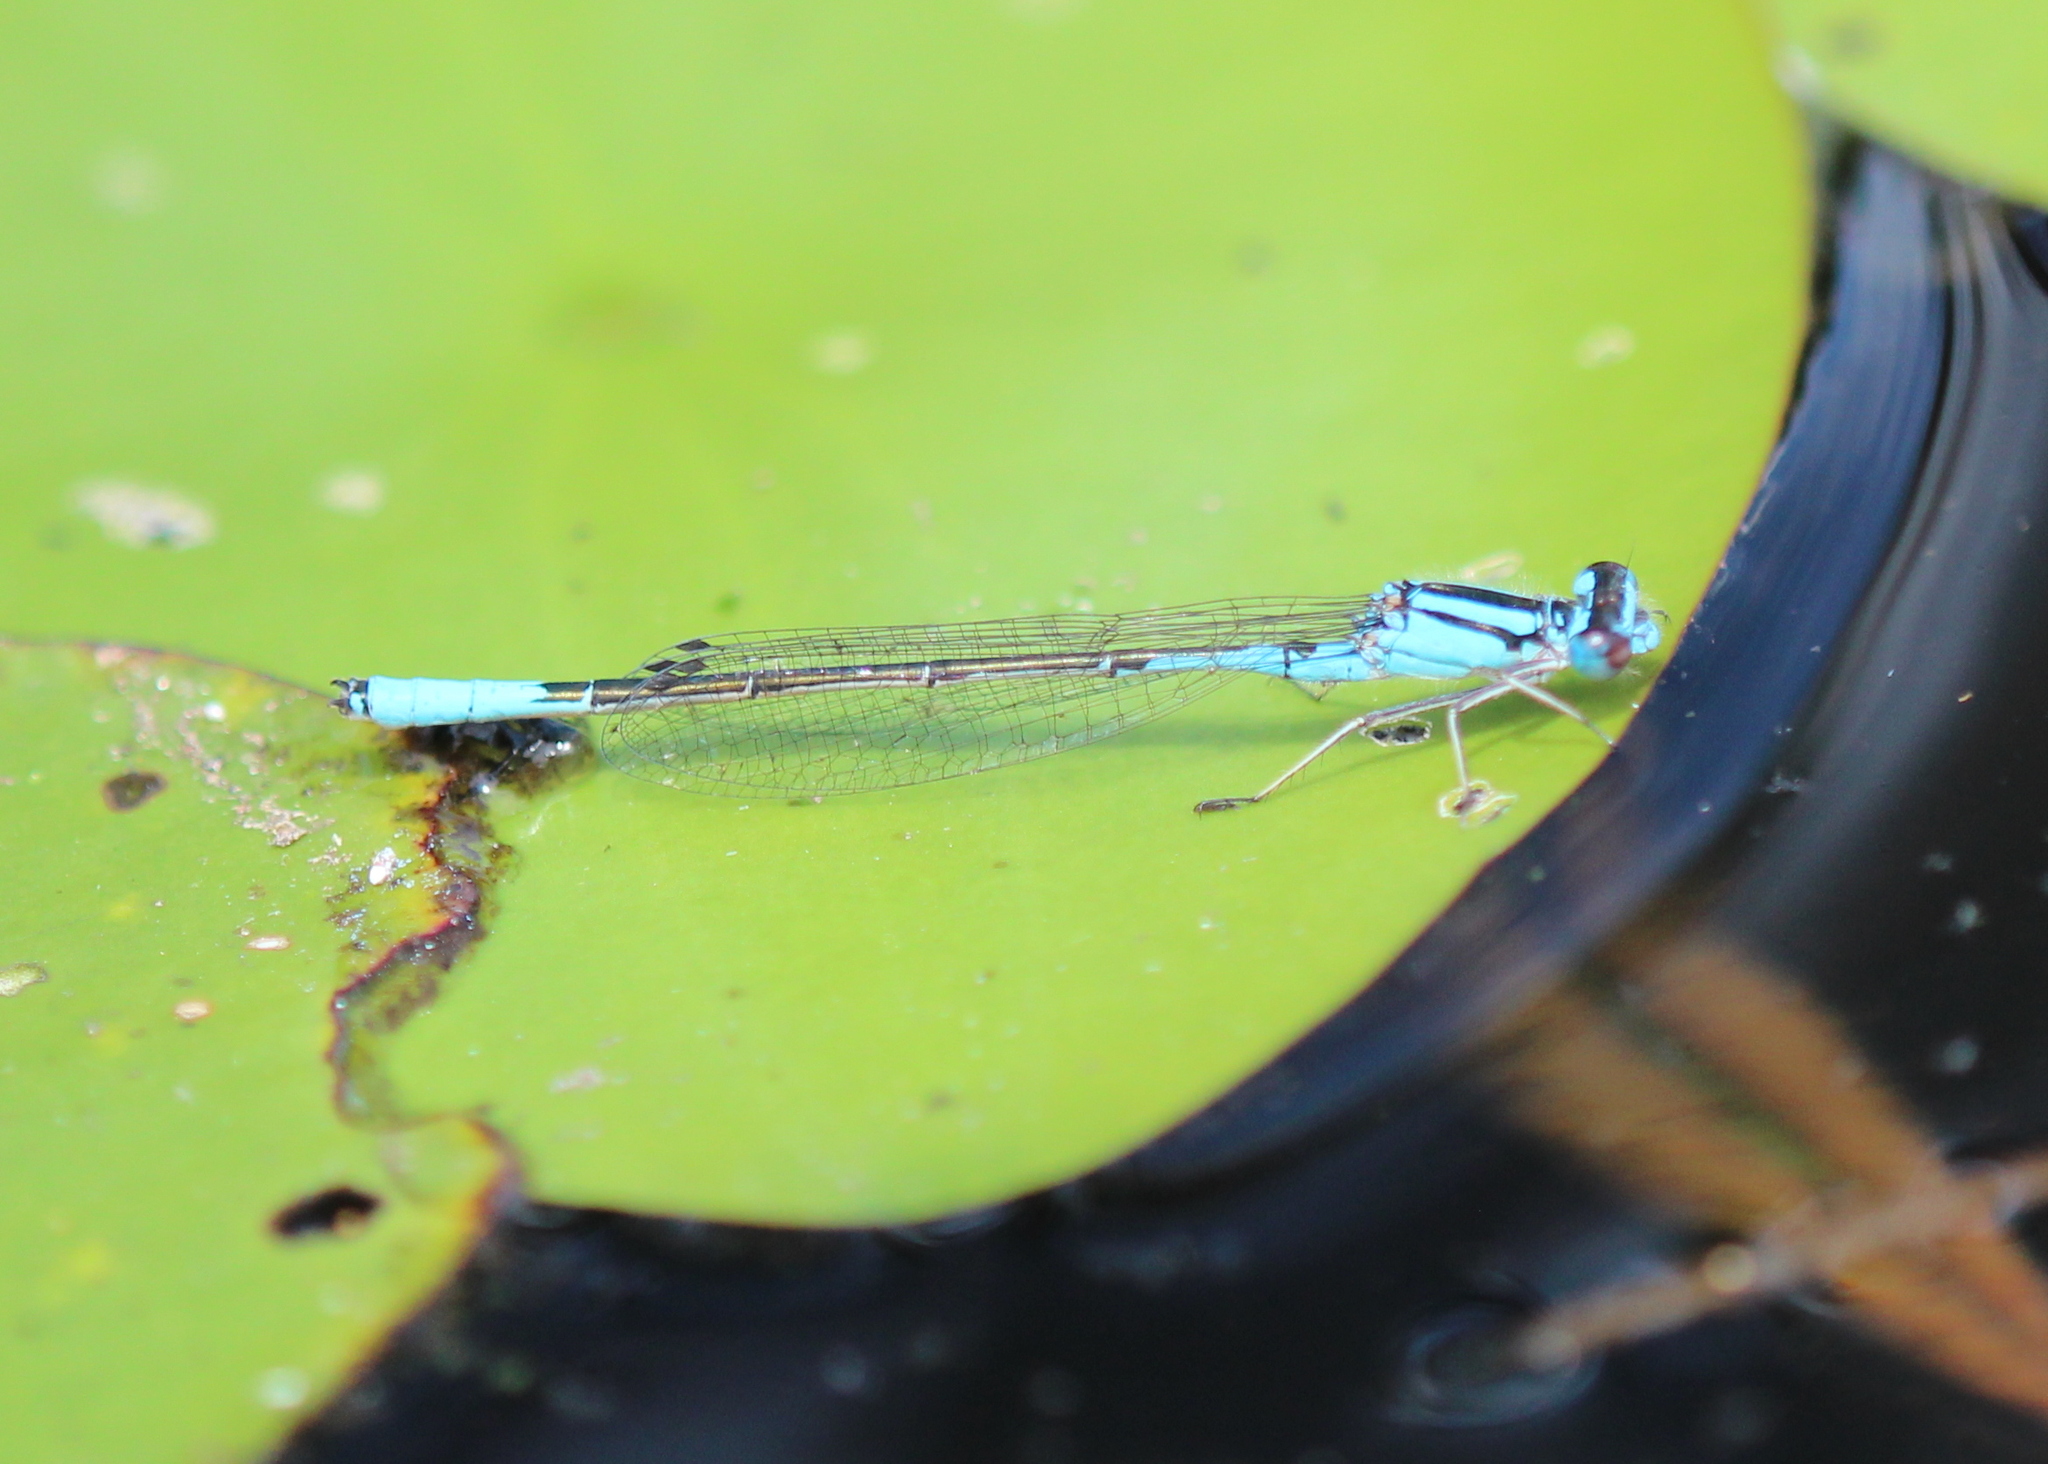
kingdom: Animalia
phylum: Arthropoda
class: Insecta
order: Odonata
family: Coenagrionidae
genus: Enallagma
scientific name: Enallagma aspersum
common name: Azure bluet
